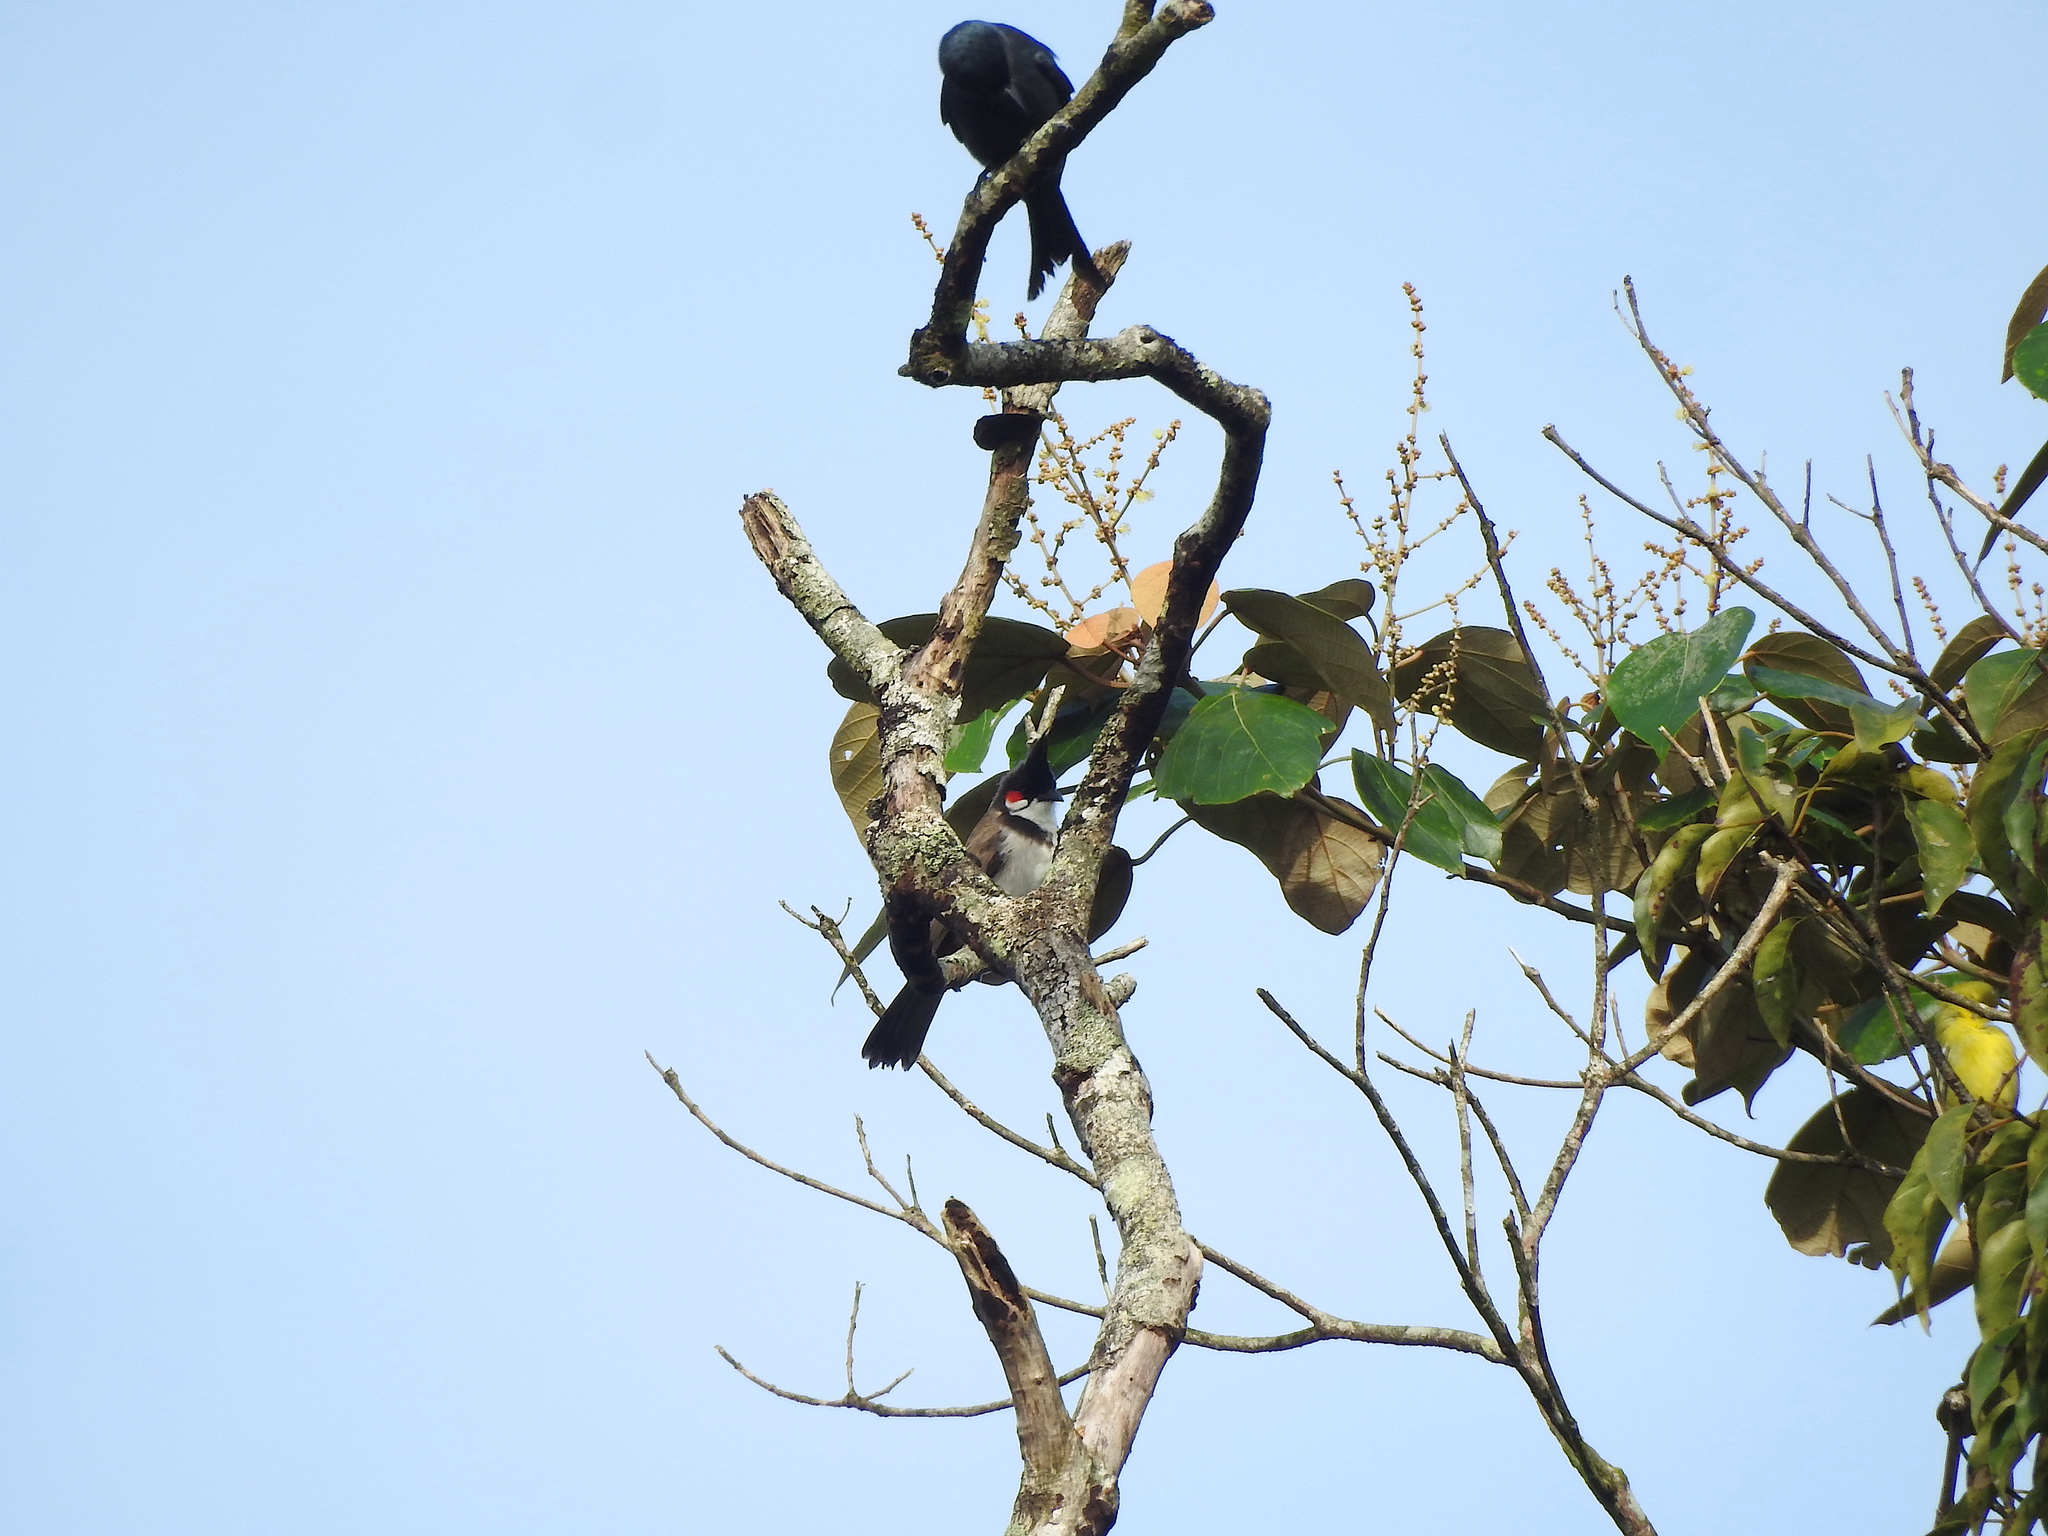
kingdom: Animalia
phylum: Chordata
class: Aves
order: Passeriformes
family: Pycnonotidae
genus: Pycnonotus
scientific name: Pycnonotus jocosus
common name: Red-whiskered bulbul
